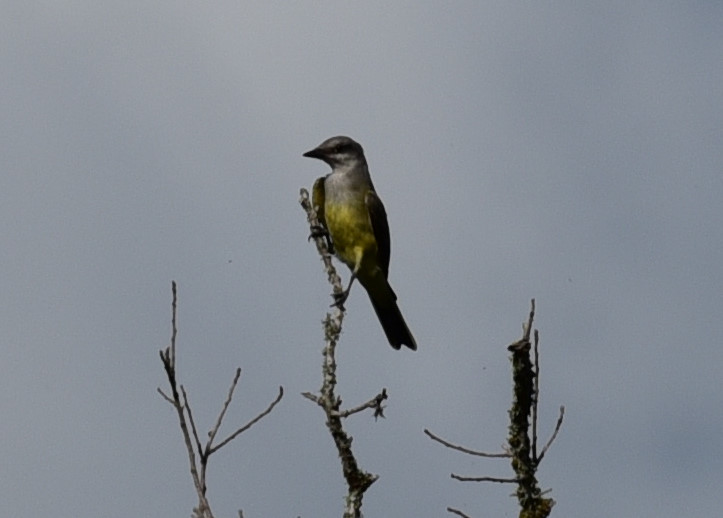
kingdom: Animalia
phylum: Chordata
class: Aves
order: Passeriformes
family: Tyrannidae
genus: Tyrannus
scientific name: Tyrannus verticalis
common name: Western kingbird
